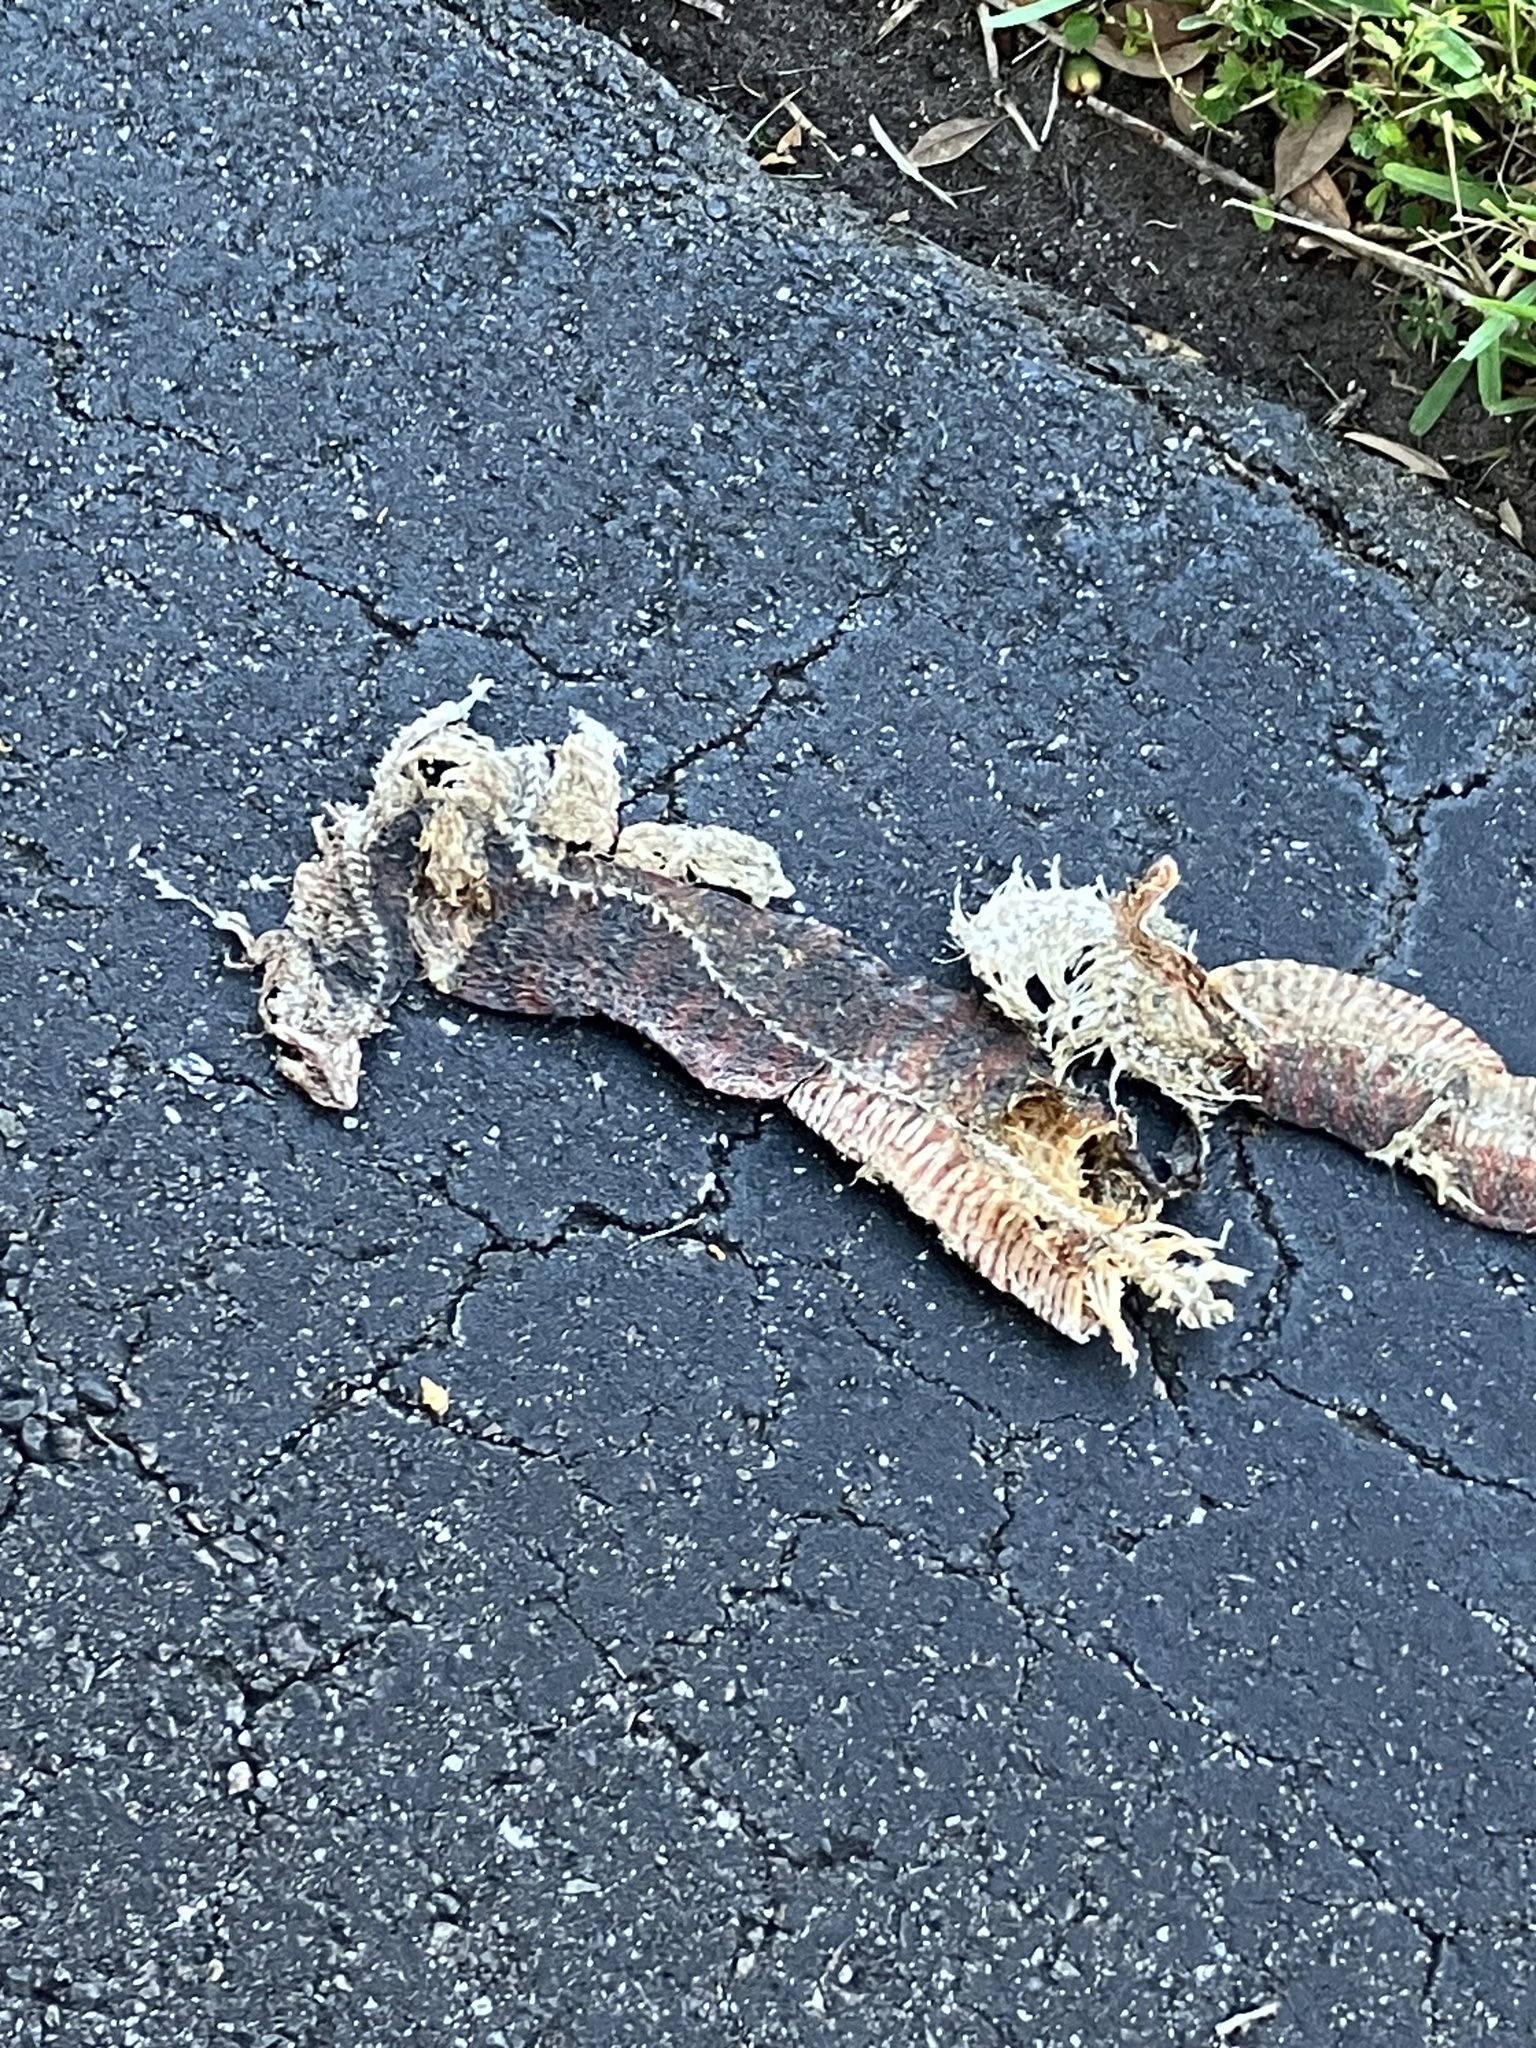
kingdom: Animalia
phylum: Chordata
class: Squamata
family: Colubridae
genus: Nerodia
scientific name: Nerodia fasciata
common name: Southern water snake
